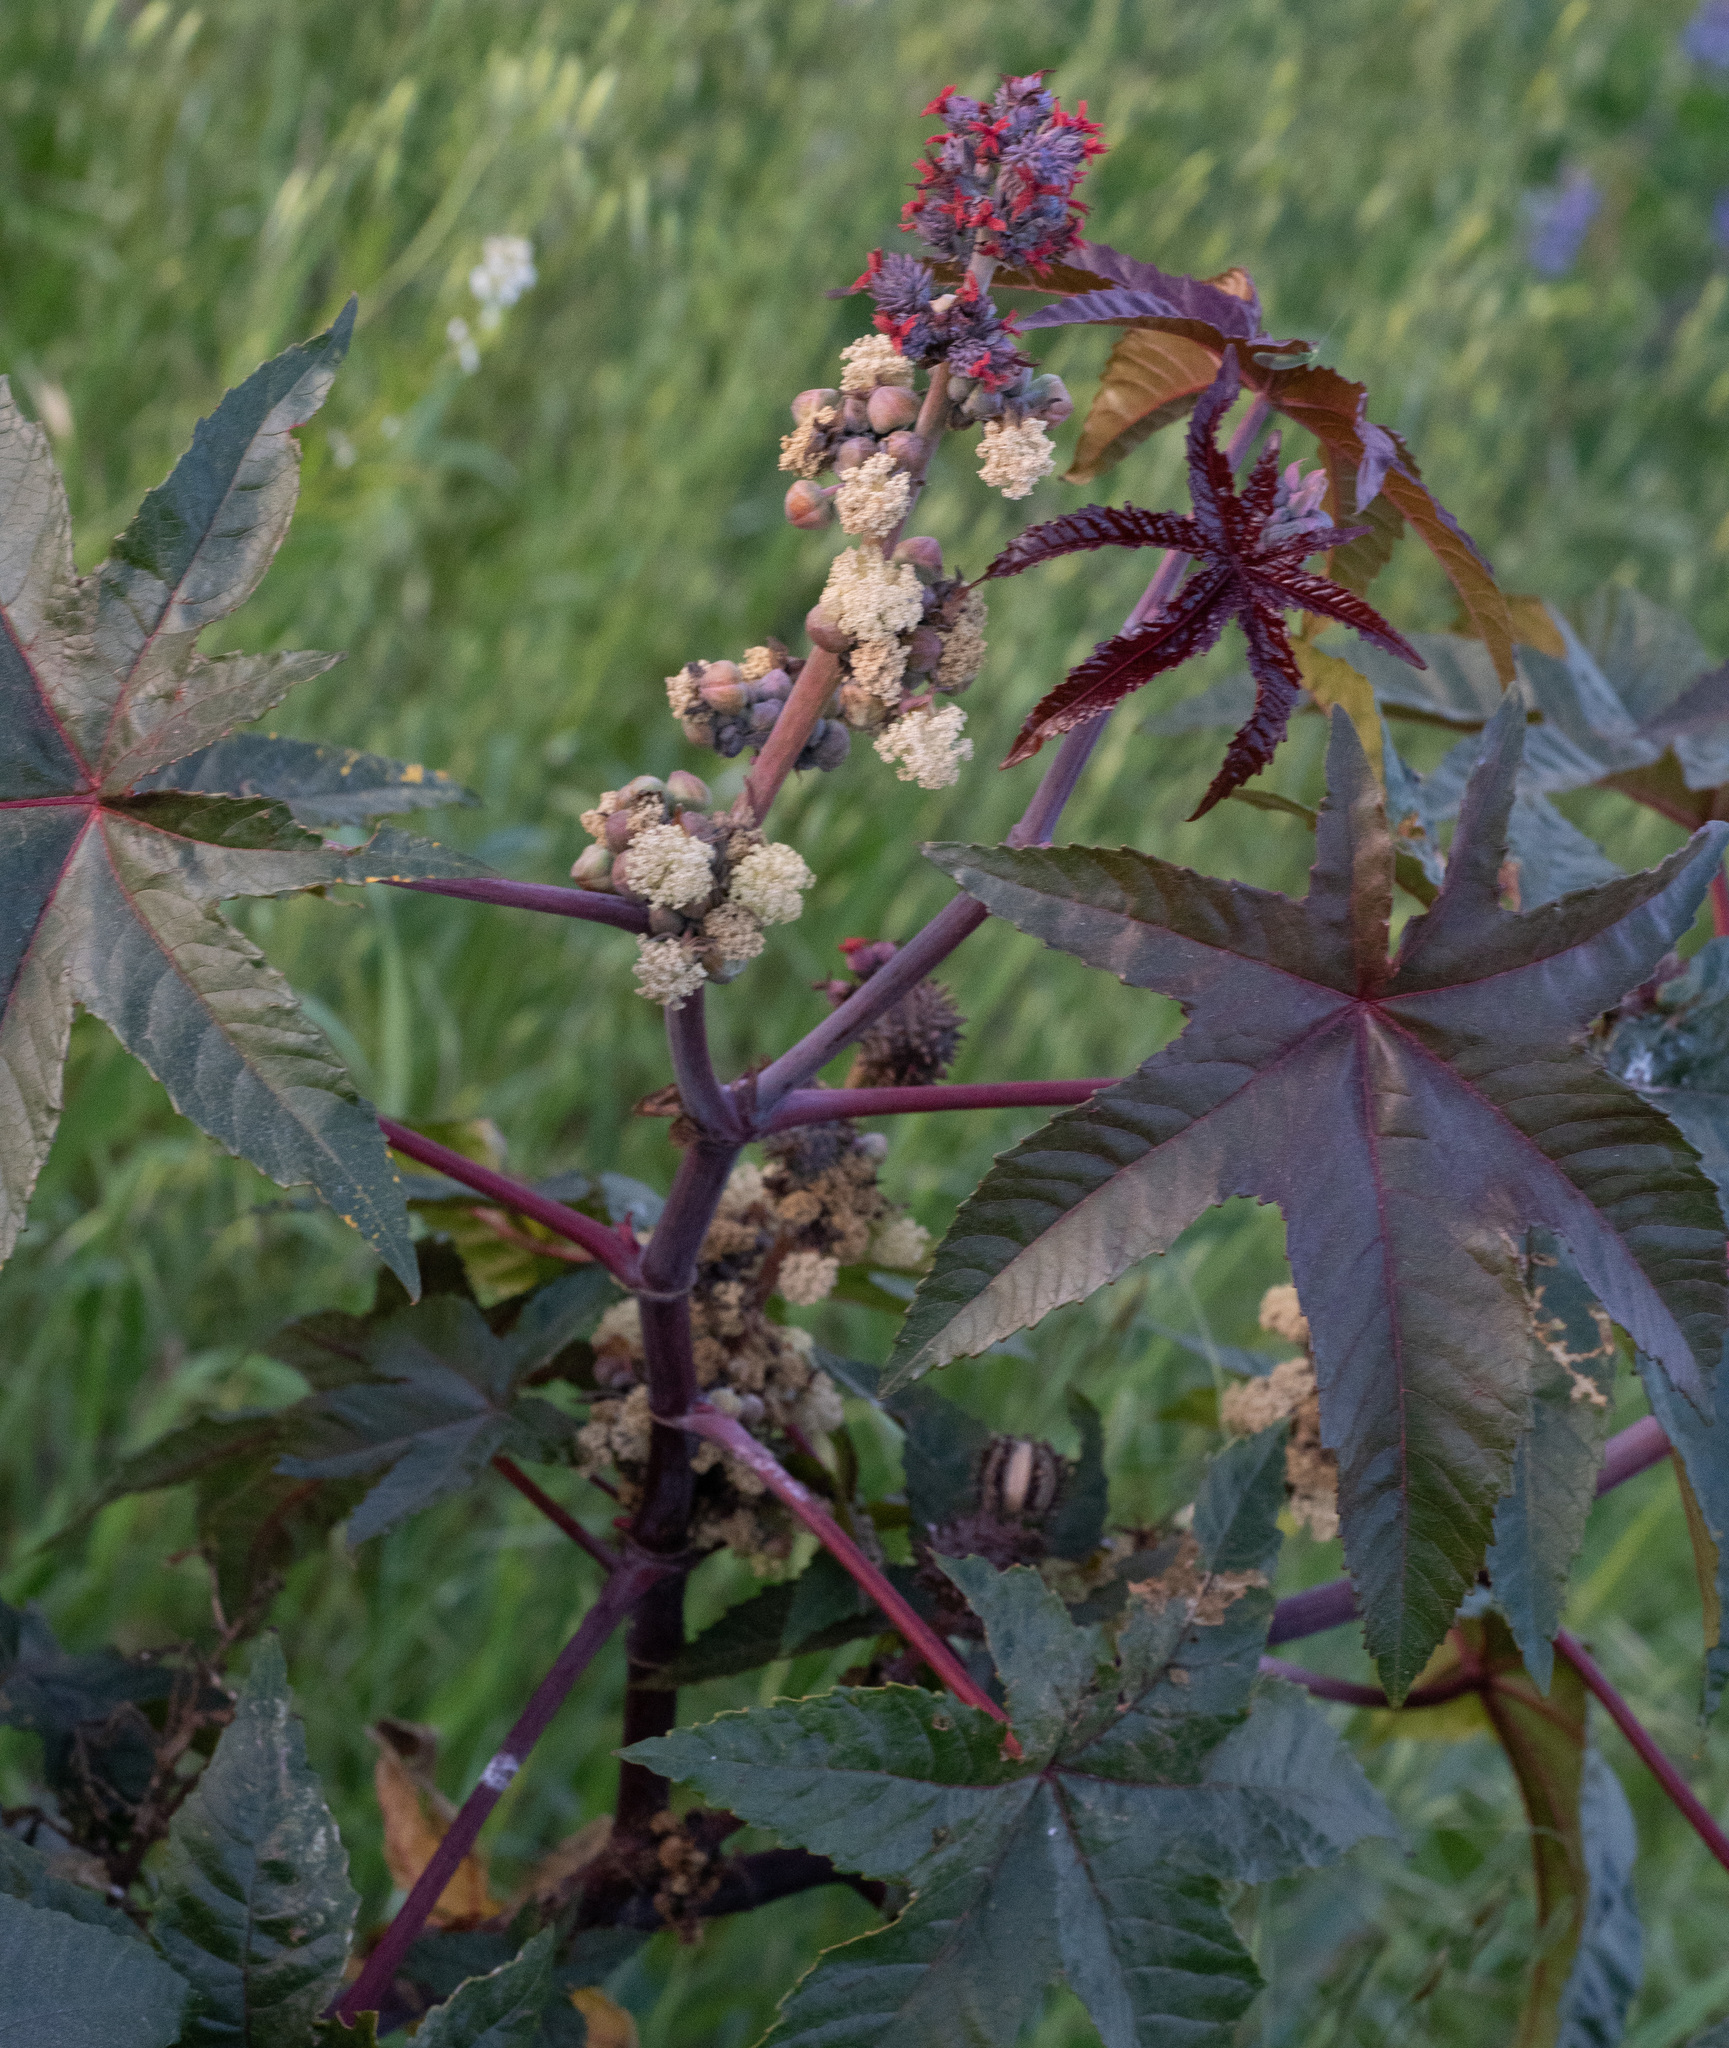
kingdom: Plantae
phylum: Tracheophyta
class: Magnoliopsida
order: Malpighiales
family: Euphorbiaceae
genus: Ricinus
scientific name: Ricinus communis
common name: Castor-oil-plant
